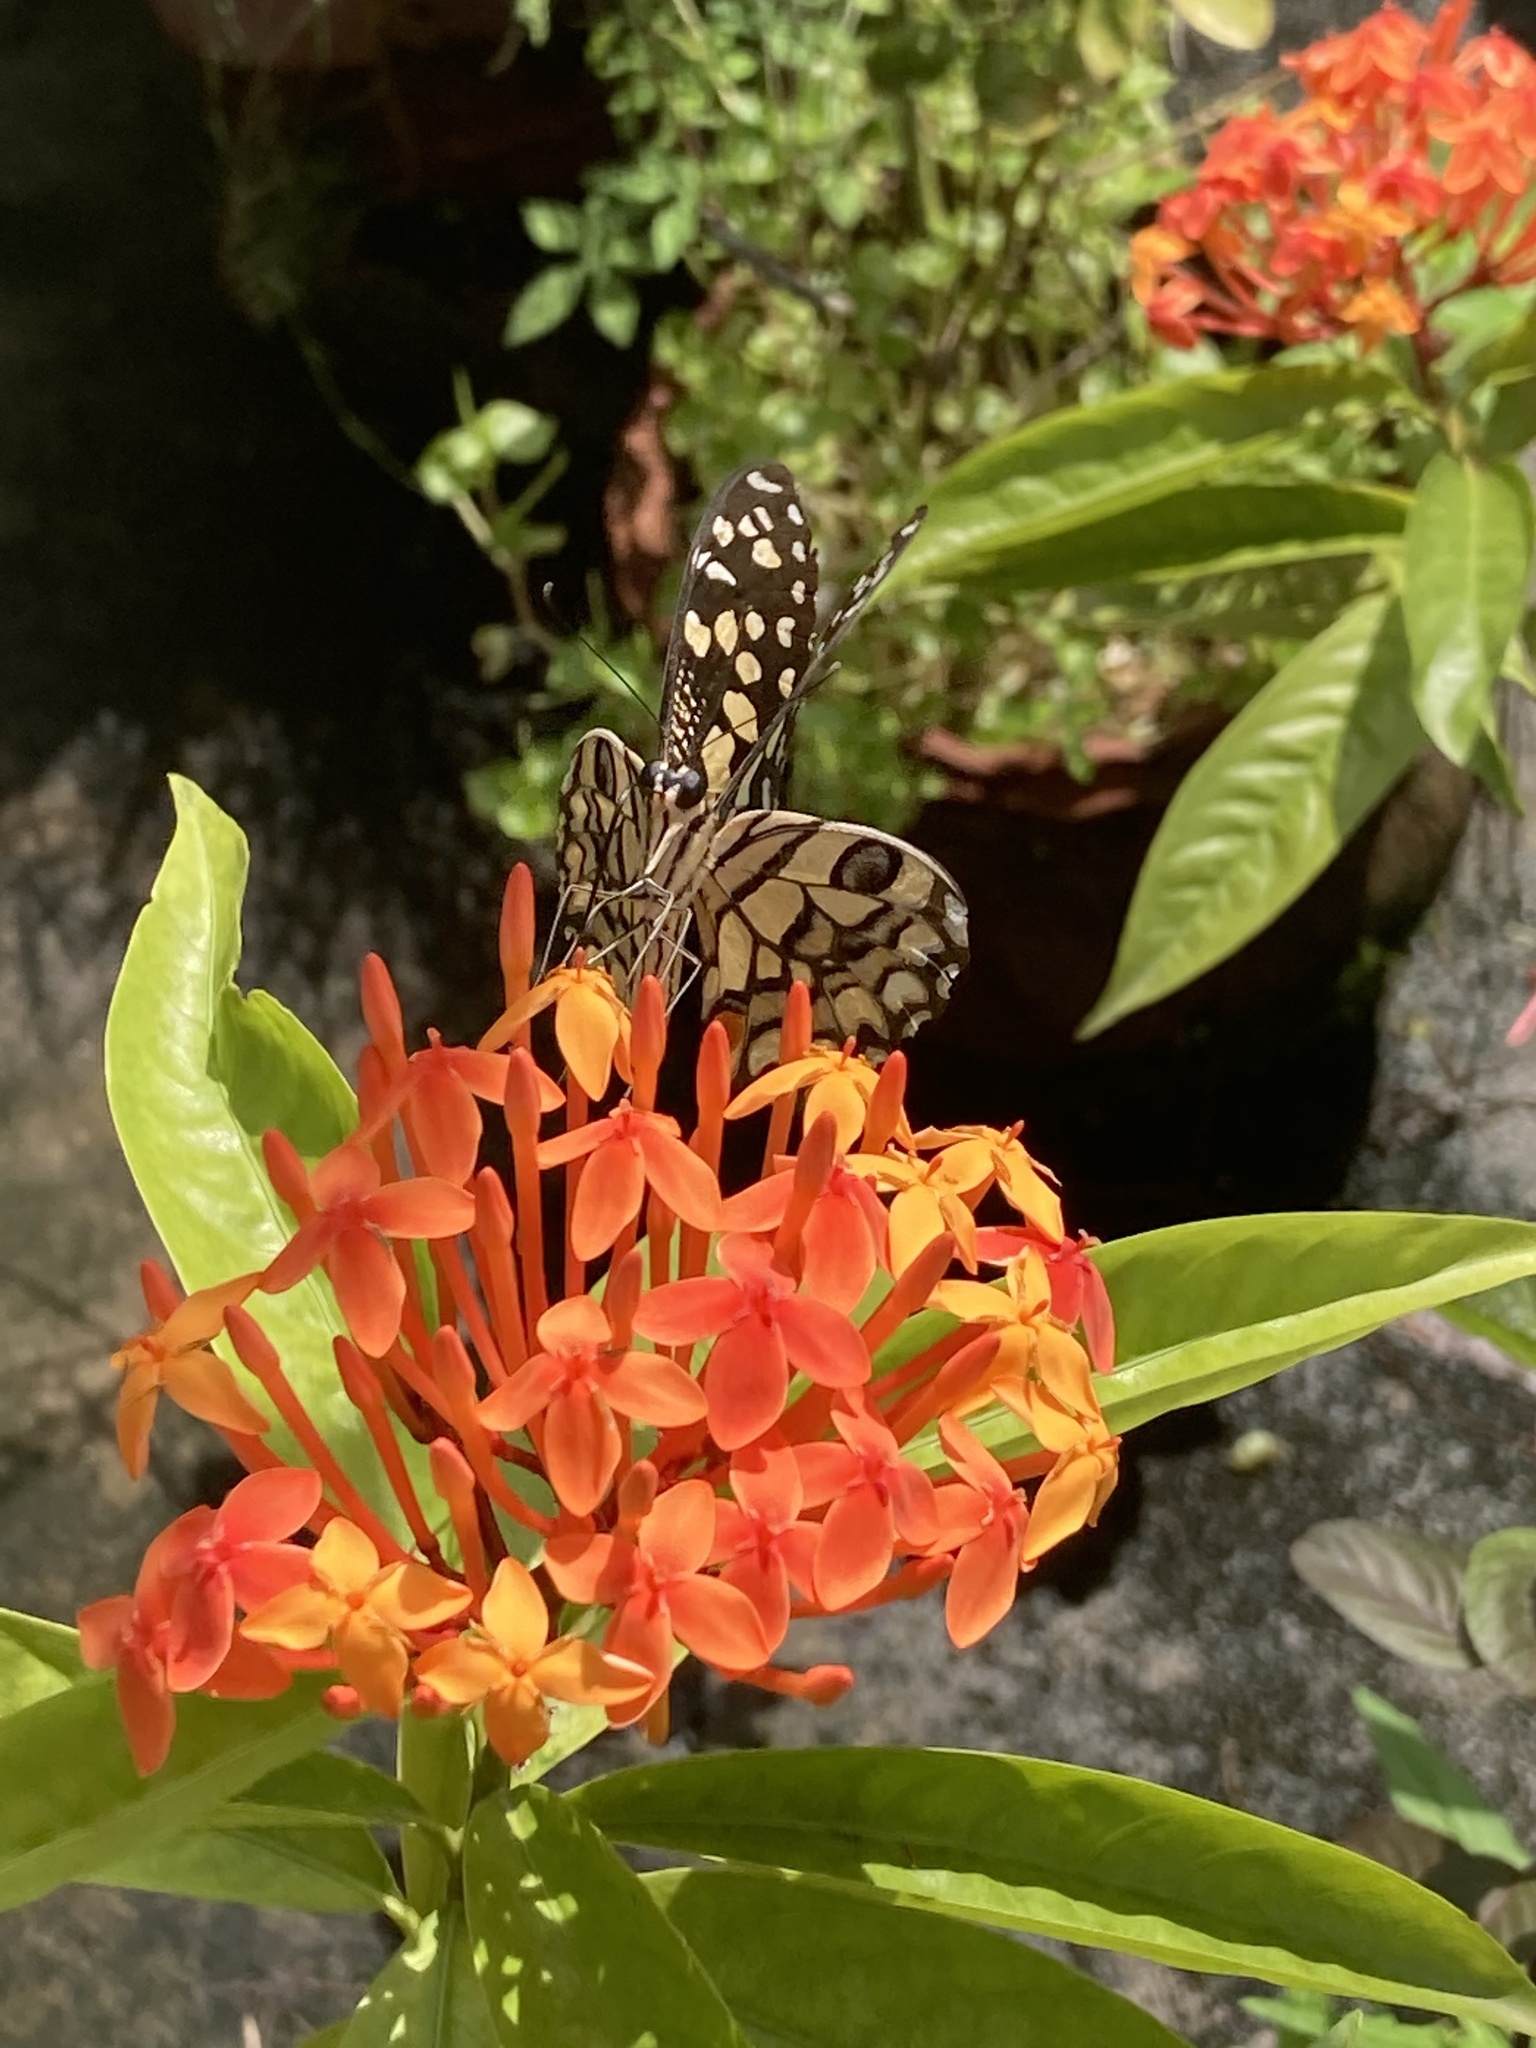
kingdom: Animalia
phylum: Arthropoda
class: Insecta
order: Lepidoptera
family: Papilionidae
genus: Papilio
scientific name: Papilio demoleus
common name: Lime butterfly
